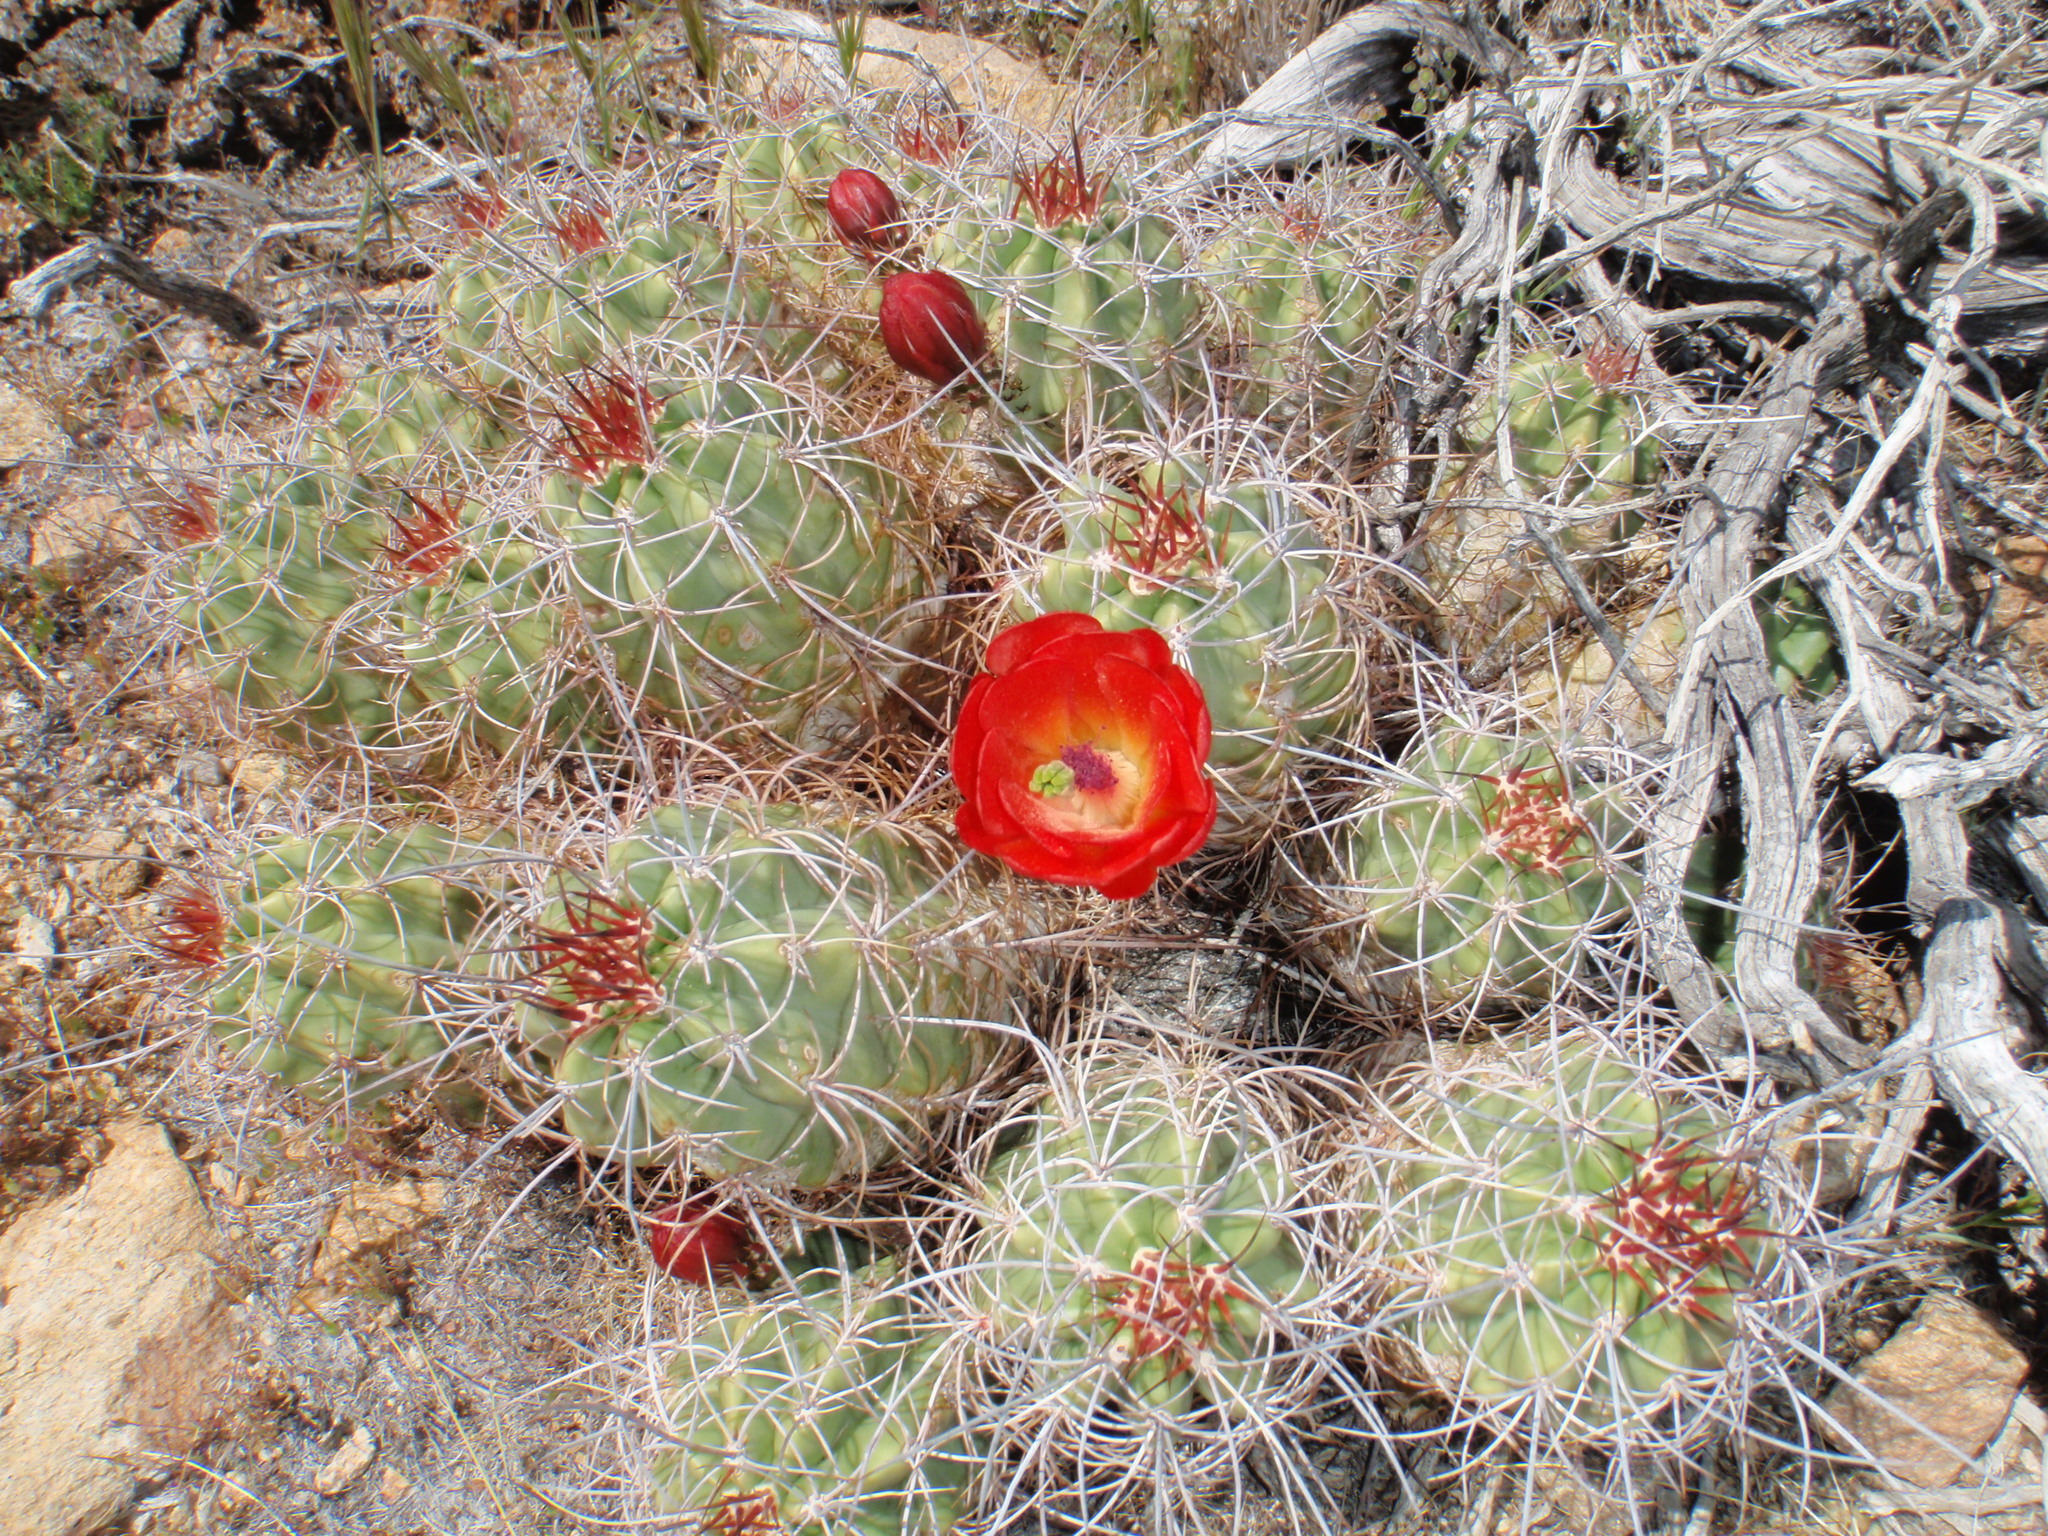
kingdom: Plantae
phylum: Tracheophyta
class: Magnoliopsida
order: Caryophyllales
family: Cactaceae
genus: Echinocereus
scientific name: Echinocereus triglochidiatus
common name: Claretcup hedgehog
